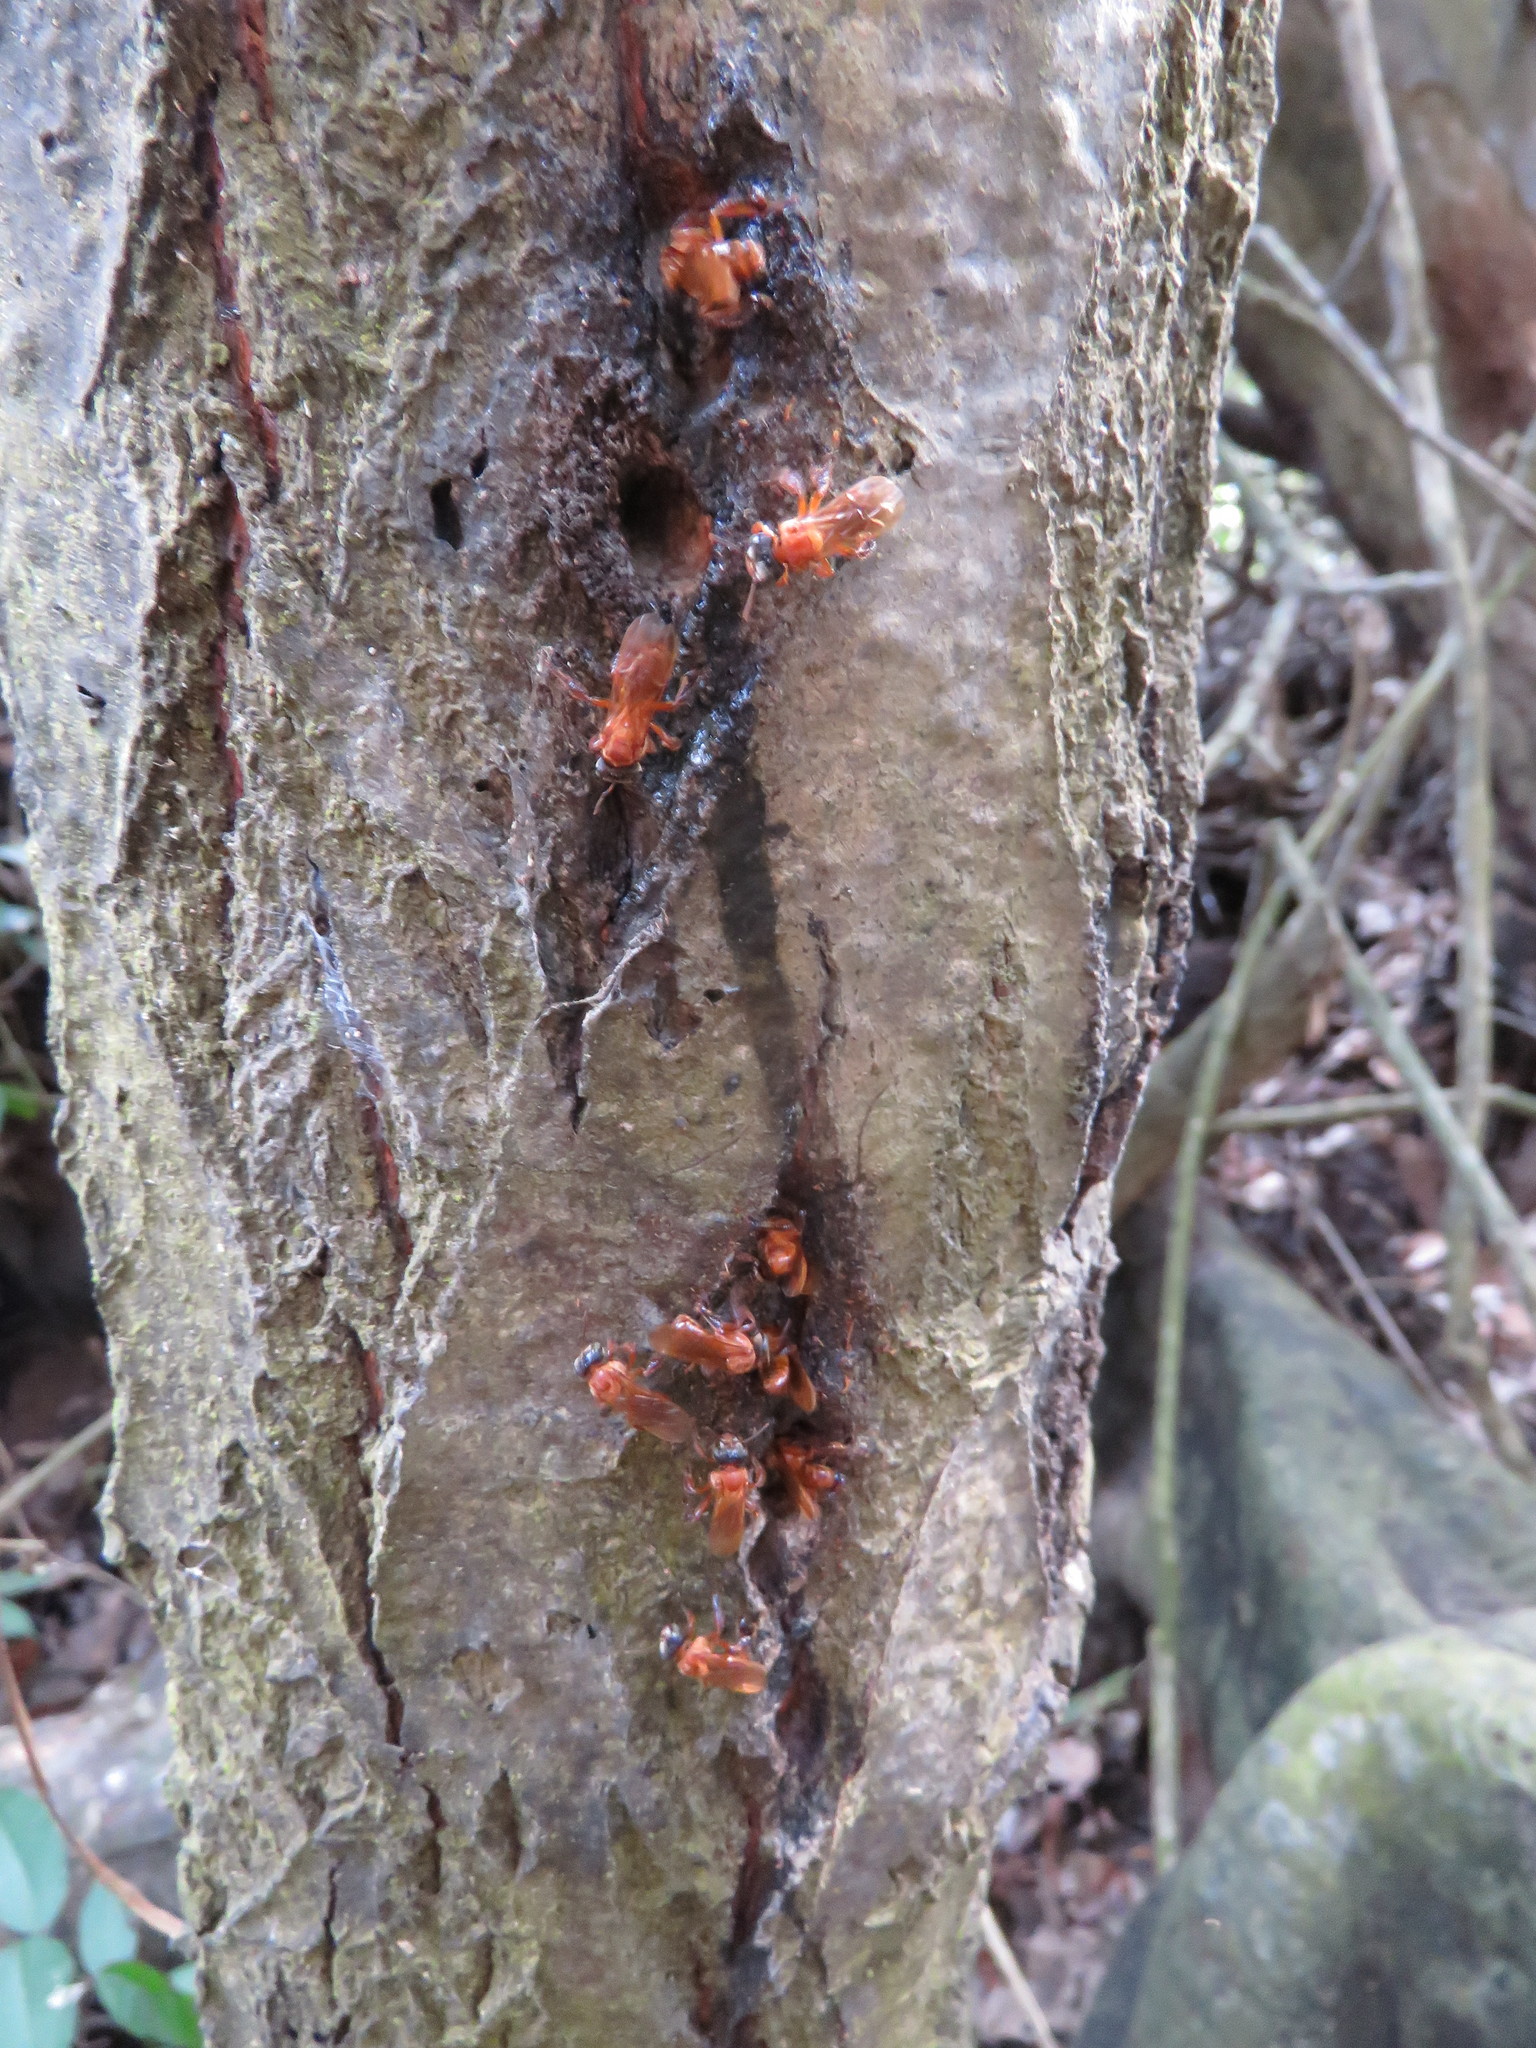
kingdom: Animalia
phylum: Arthropoda
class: Insecta
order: Hymenoptera
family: Apidae
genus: Trigona
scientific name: Trigona williana
